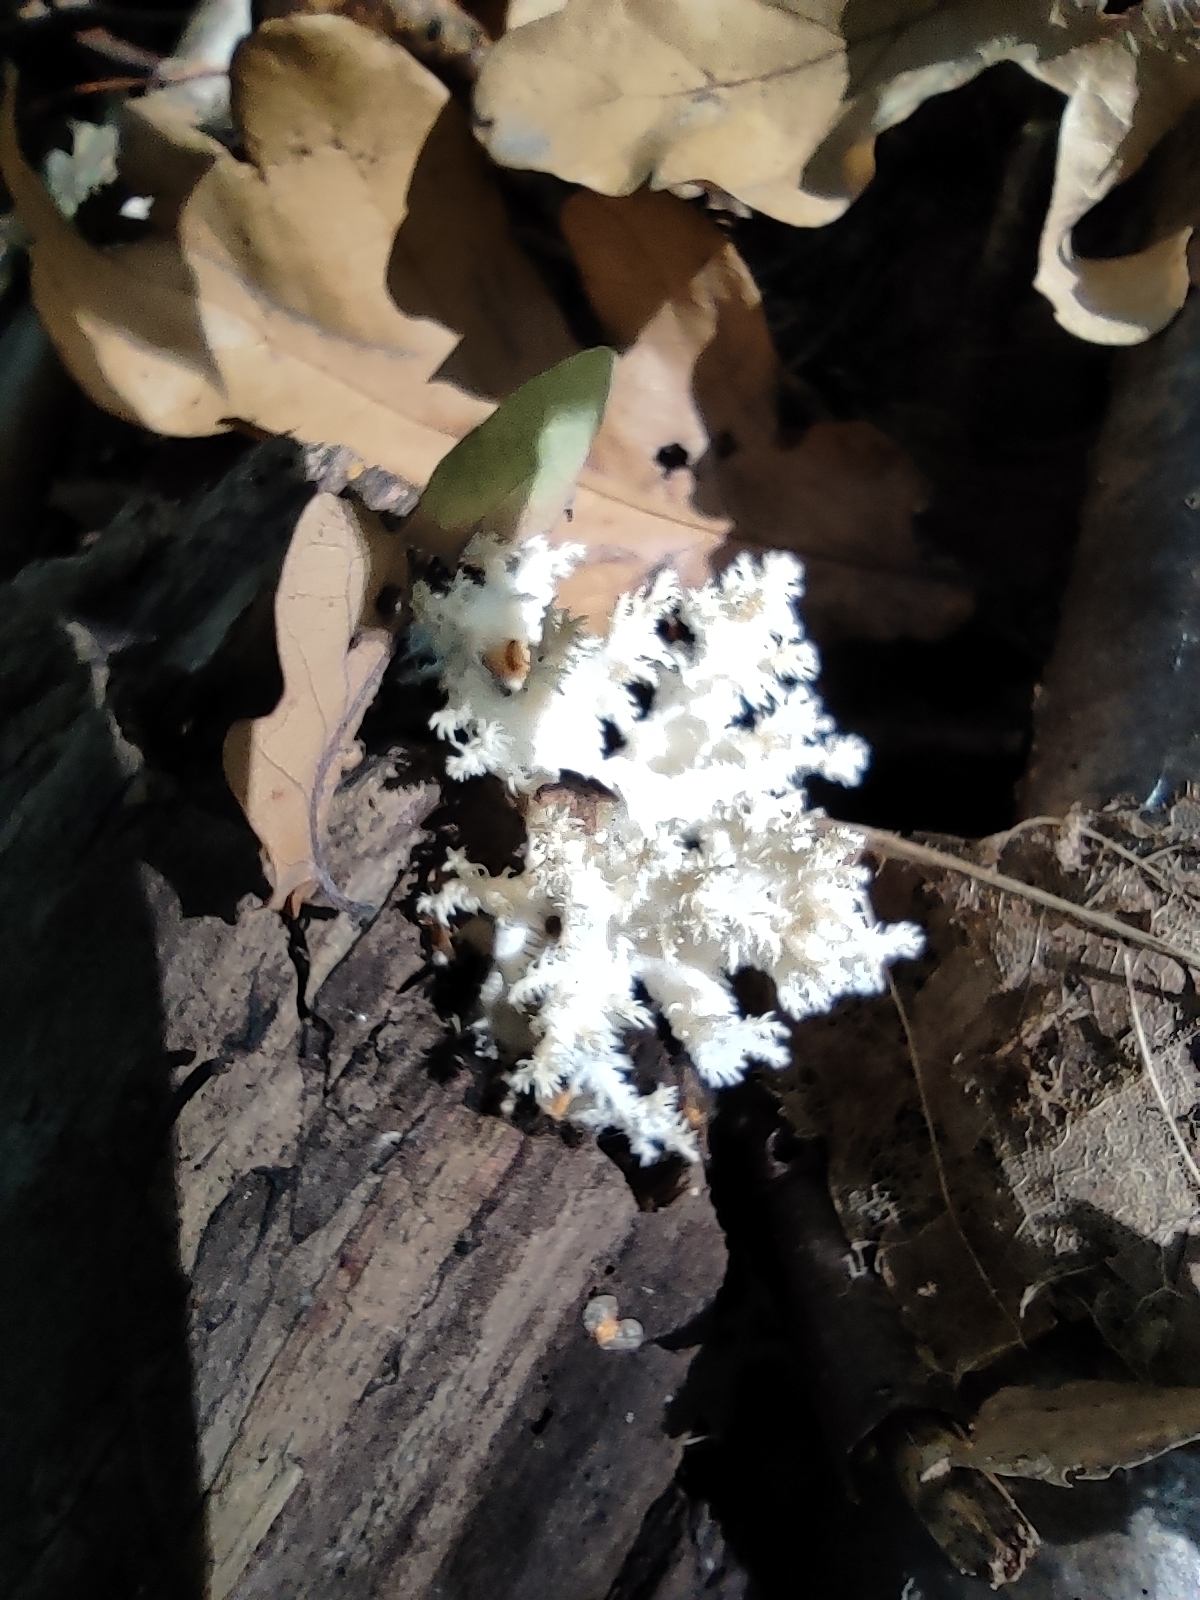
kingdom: Fungi
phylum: Basidiomycota
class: Agaricomycetes
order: Russulales
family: Hericiaceae
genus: Hericium
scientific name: Hericium coralloides
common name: Coral tooth
